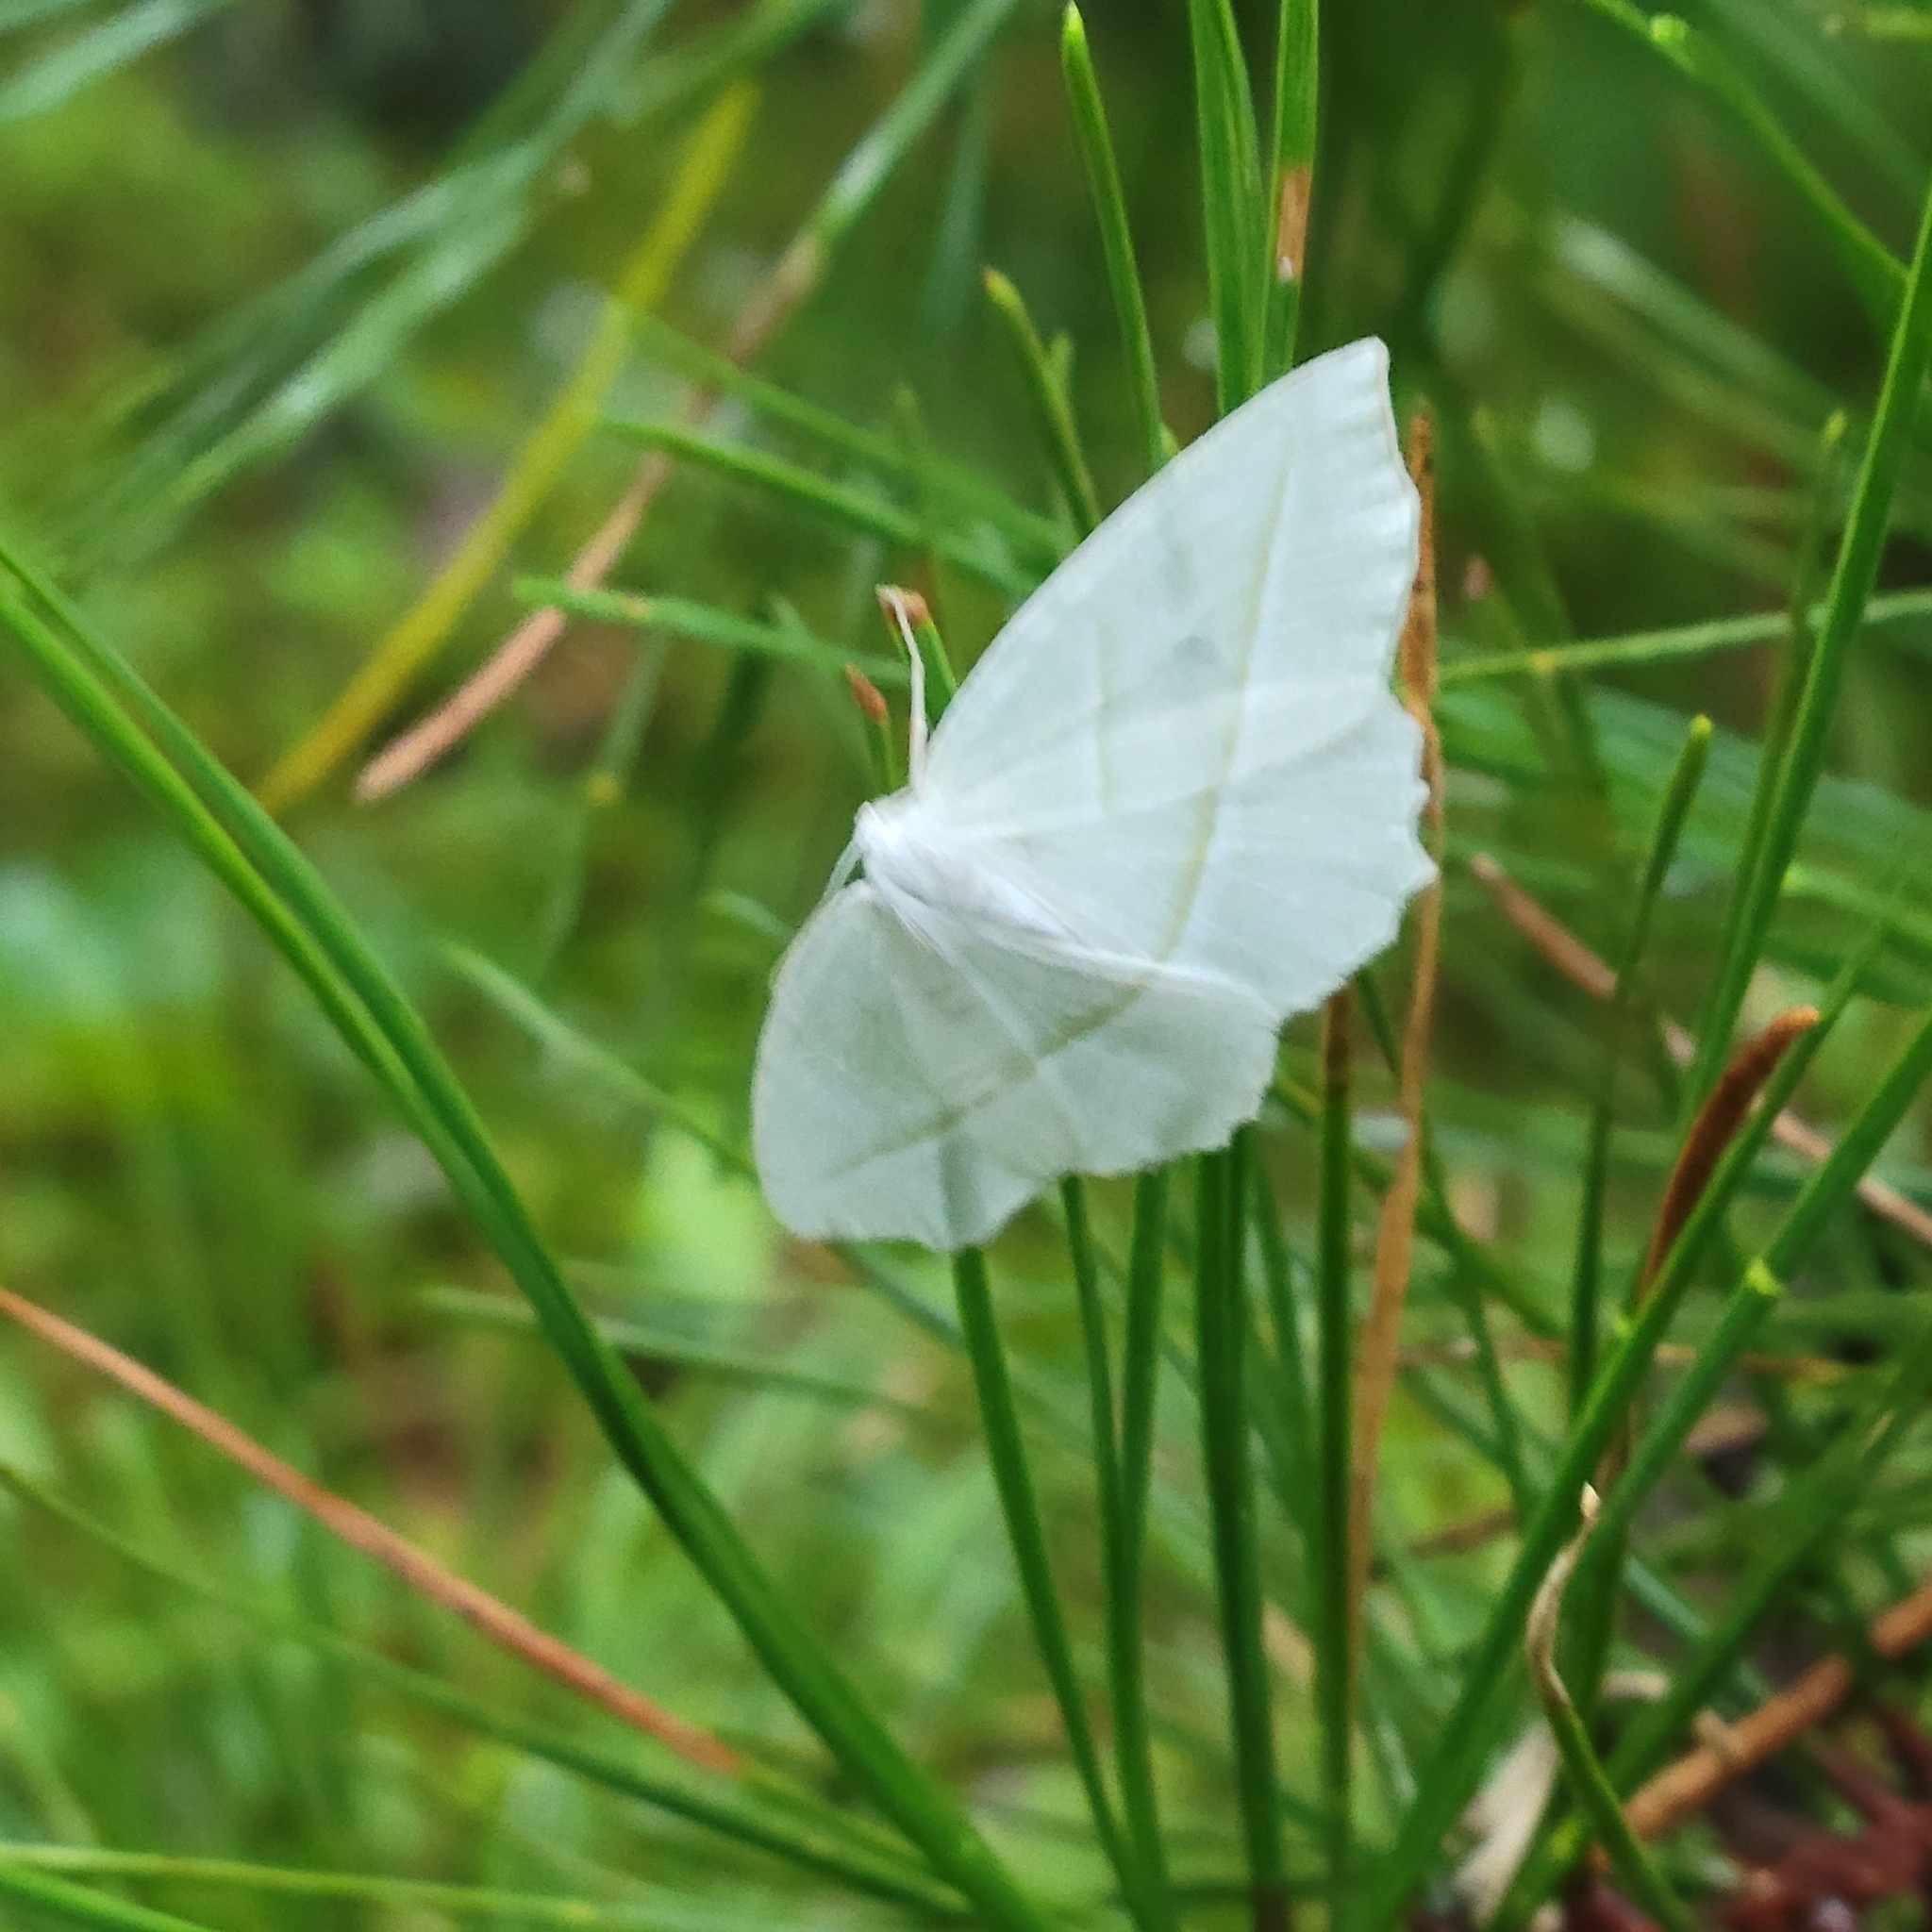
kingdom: Animalia
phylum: Arthropoda
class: Insecta
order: Lepidoptera
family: Geometridae
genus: Campaea
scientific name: Campaea perlata
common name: Fringed looper
